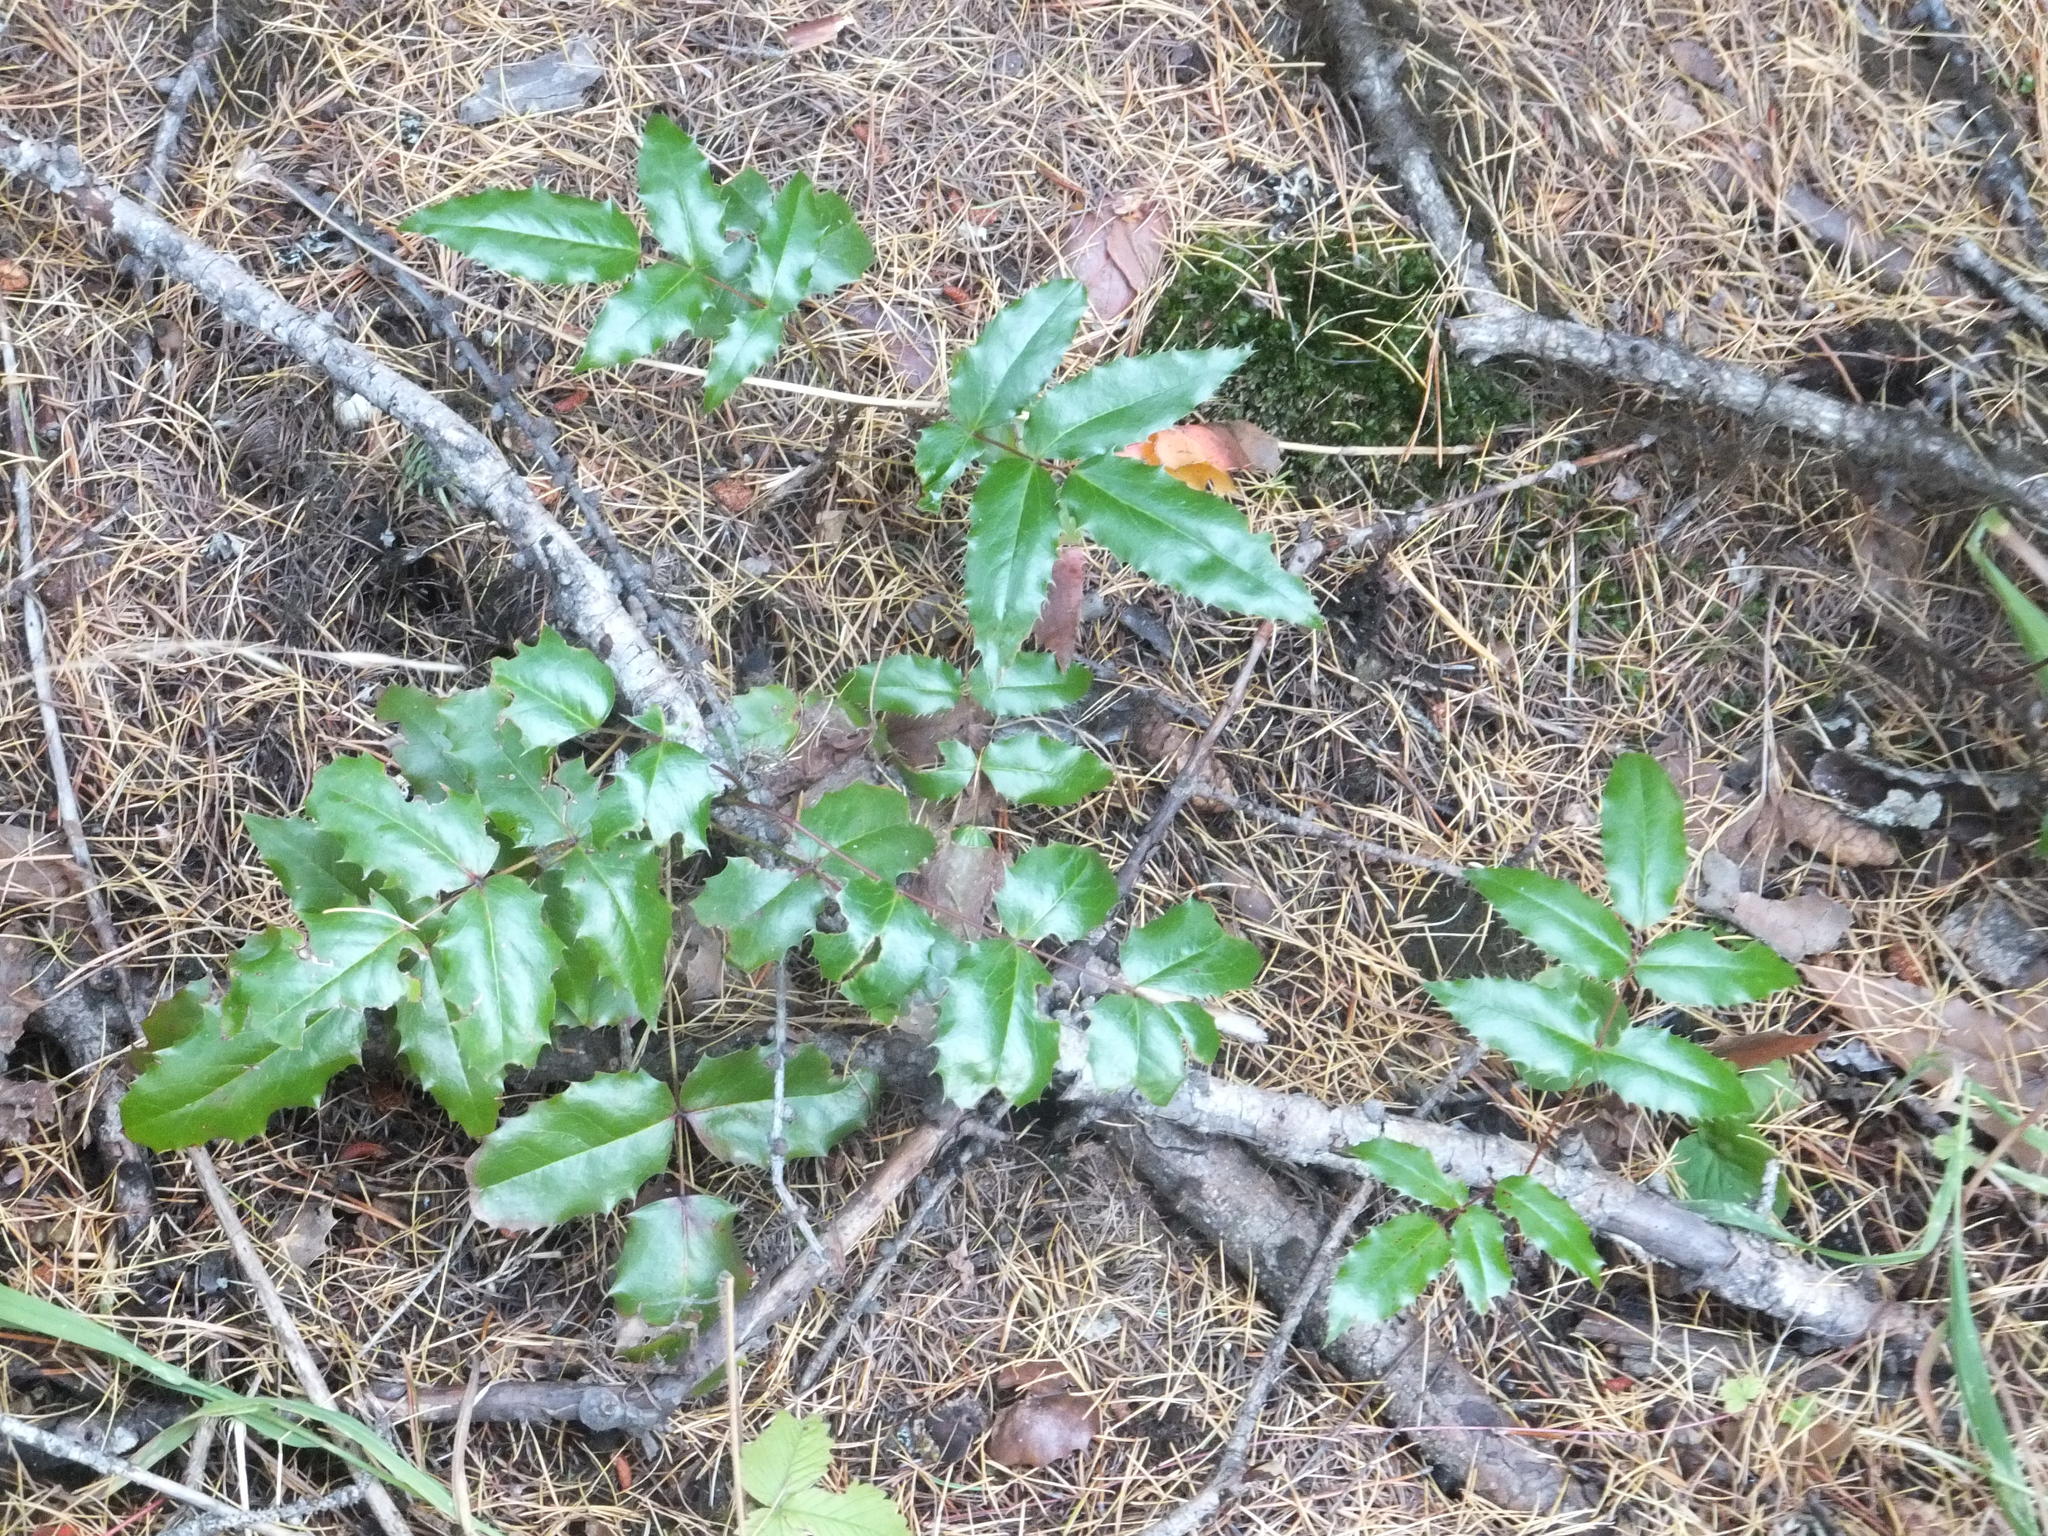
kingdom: Plantae
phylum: Tracheophyta
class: Magnoliopsida
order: Ranunculales
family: Berberidaceae
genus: Mahonia
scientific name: Mahonia aquifolium
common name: Oregon-grape
